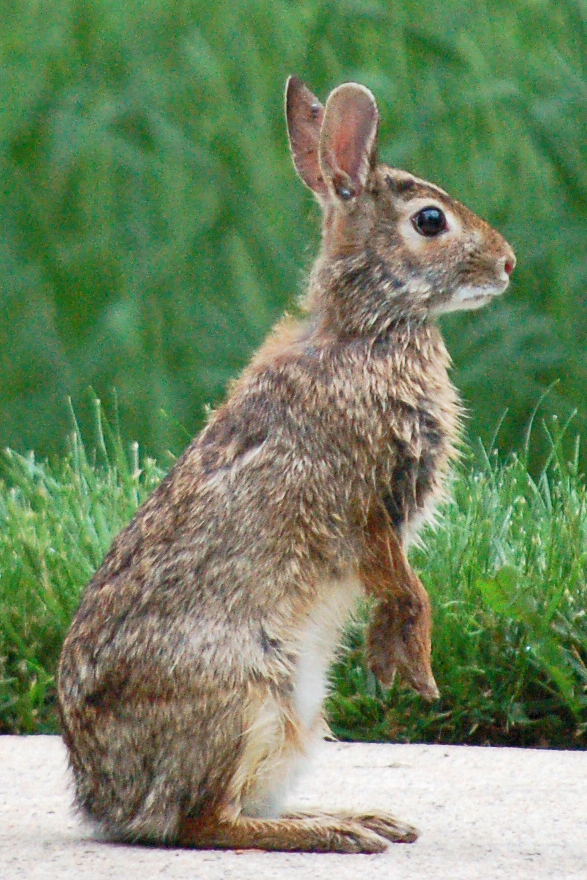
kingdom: Animalia
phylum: Chordata
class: Mammalia
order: Lagomorpha
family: Leporidae
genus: Sylvilagus
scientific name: Sylvilagus floridanus
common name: Eastern cottontail
